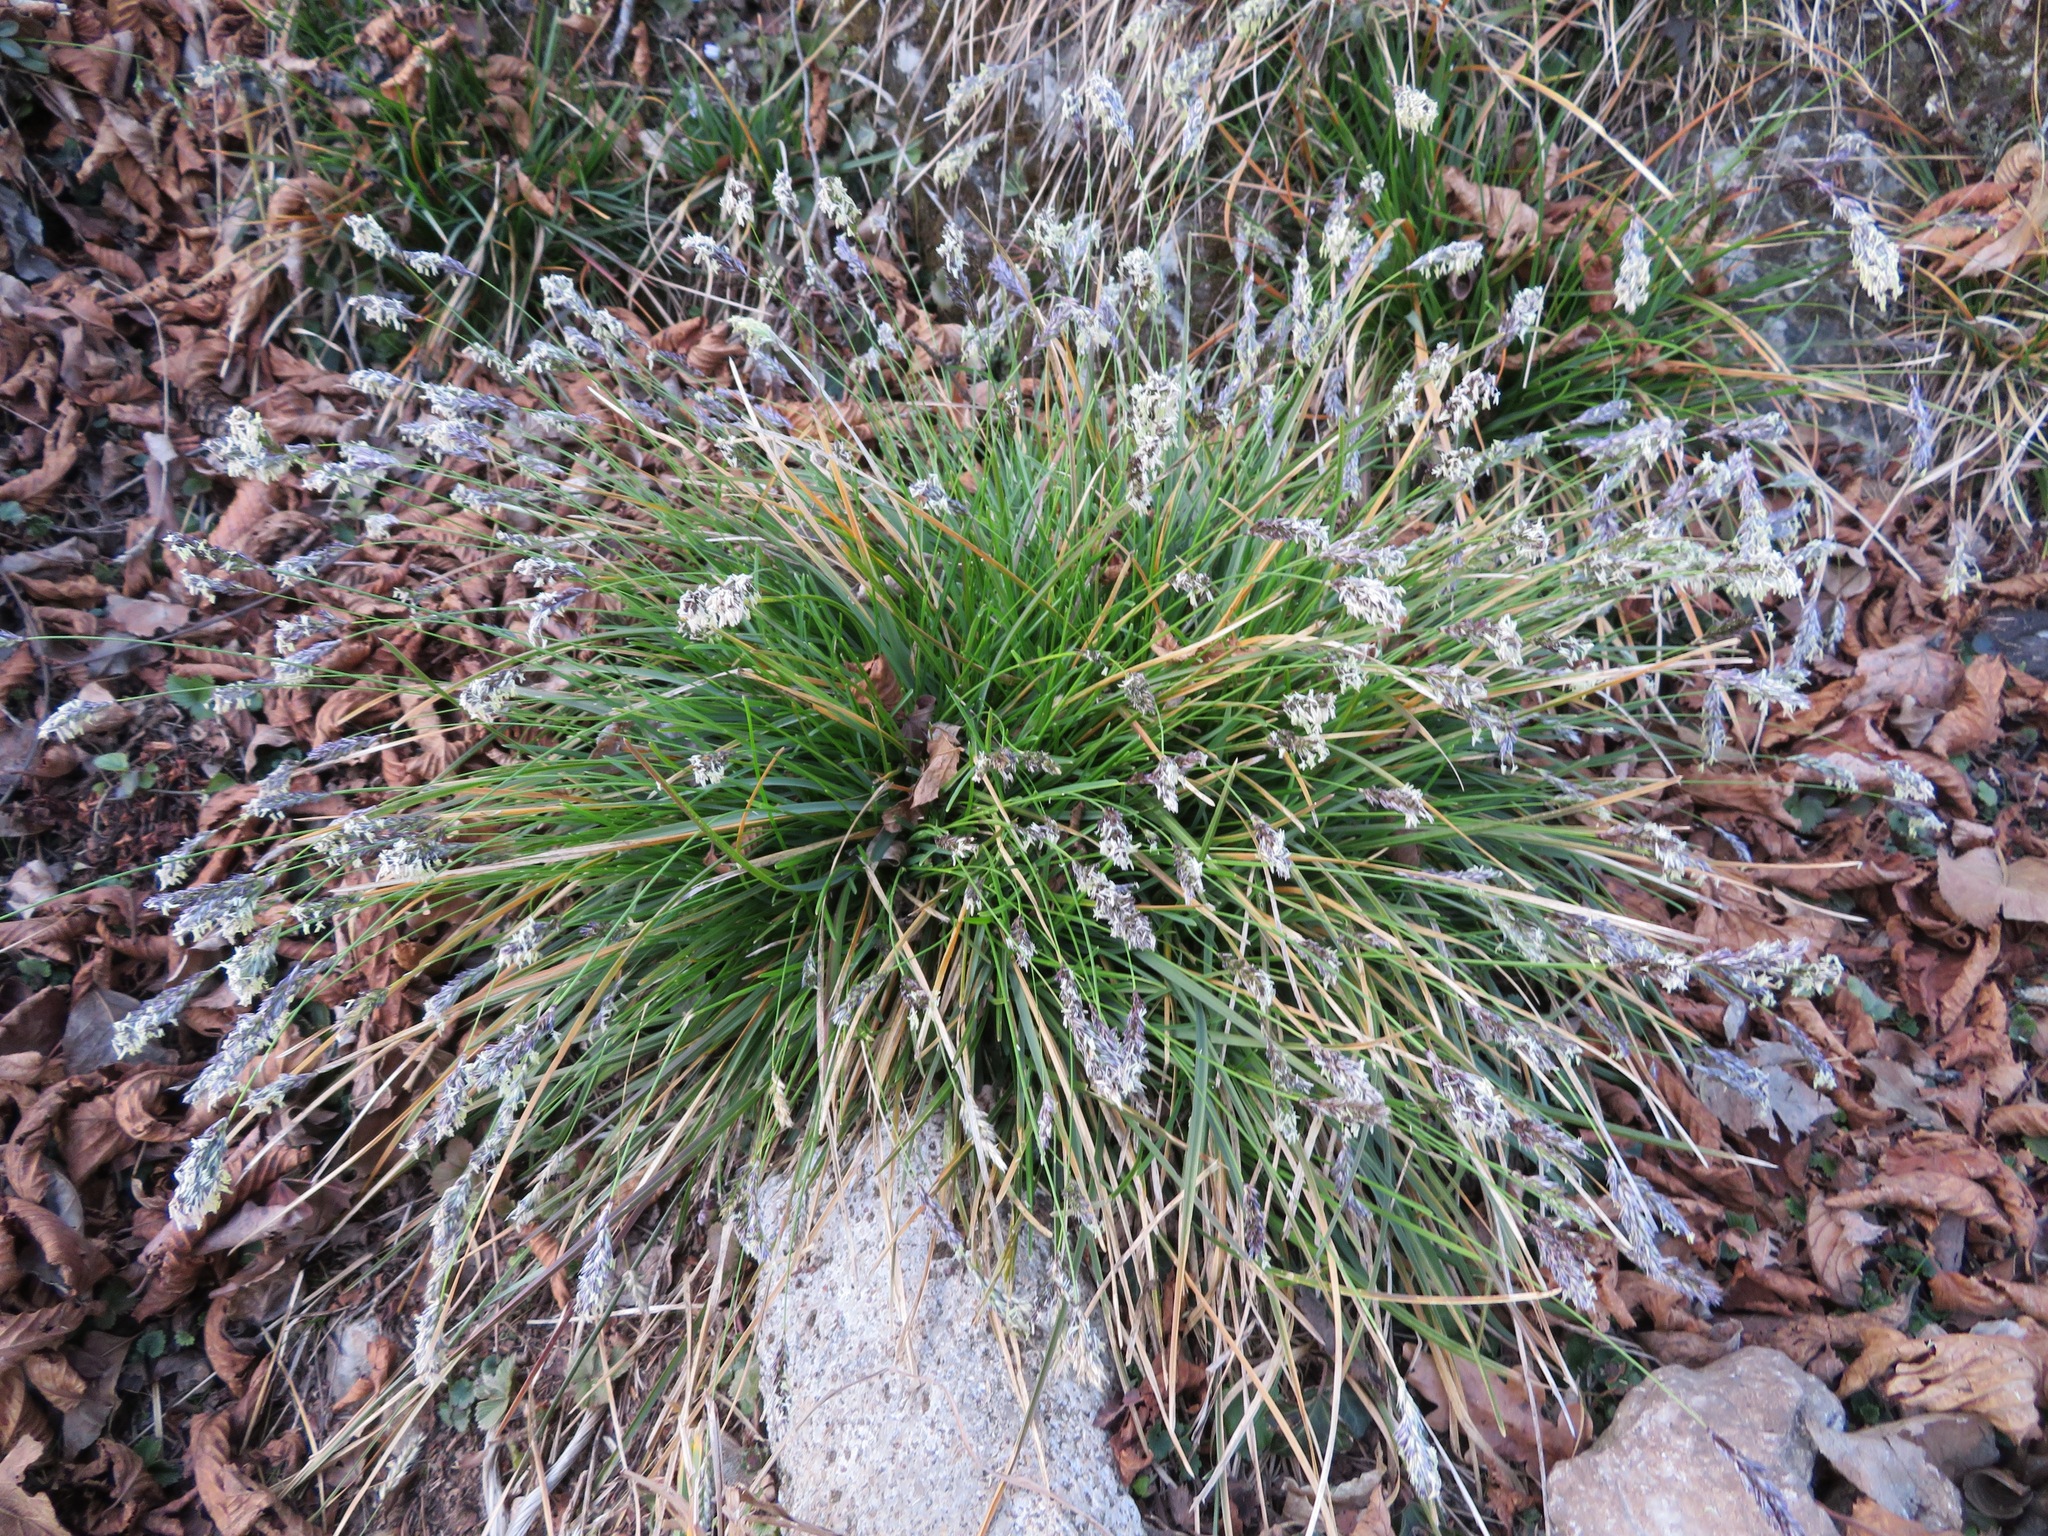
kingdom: Plantae
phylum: Tracheophyta
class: Liliopsida
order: Poales
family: Poaceae
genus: Sesleria
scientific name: Sesleria caerulea
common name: Blue moor-grass
